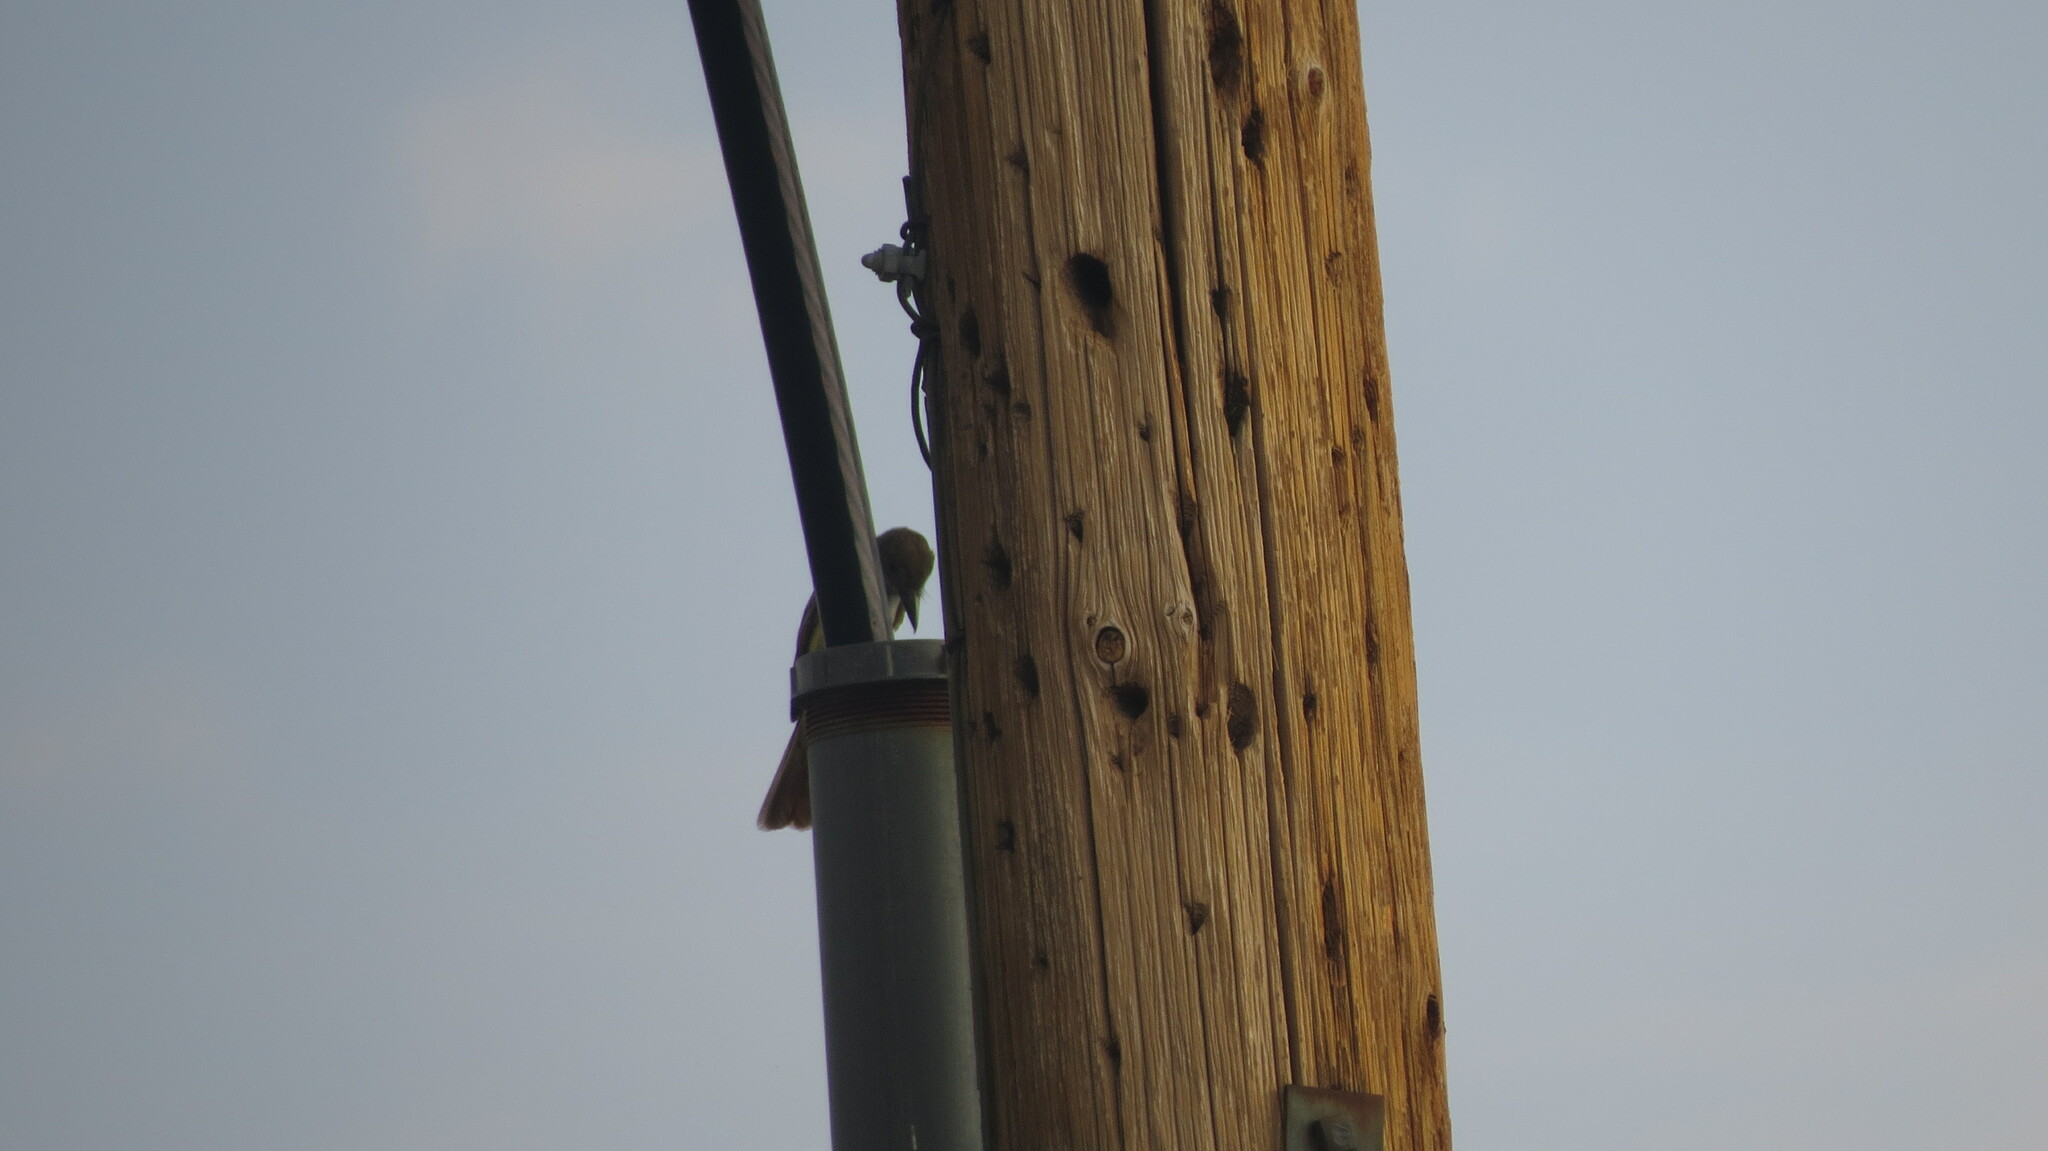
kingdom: Animalia
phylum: Chordata
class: Aves
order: Passeriformes
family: Tyrannidae
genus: Myiarchus
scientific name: Myiarchus tyrannulus
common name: Brown-crested flycatcher
